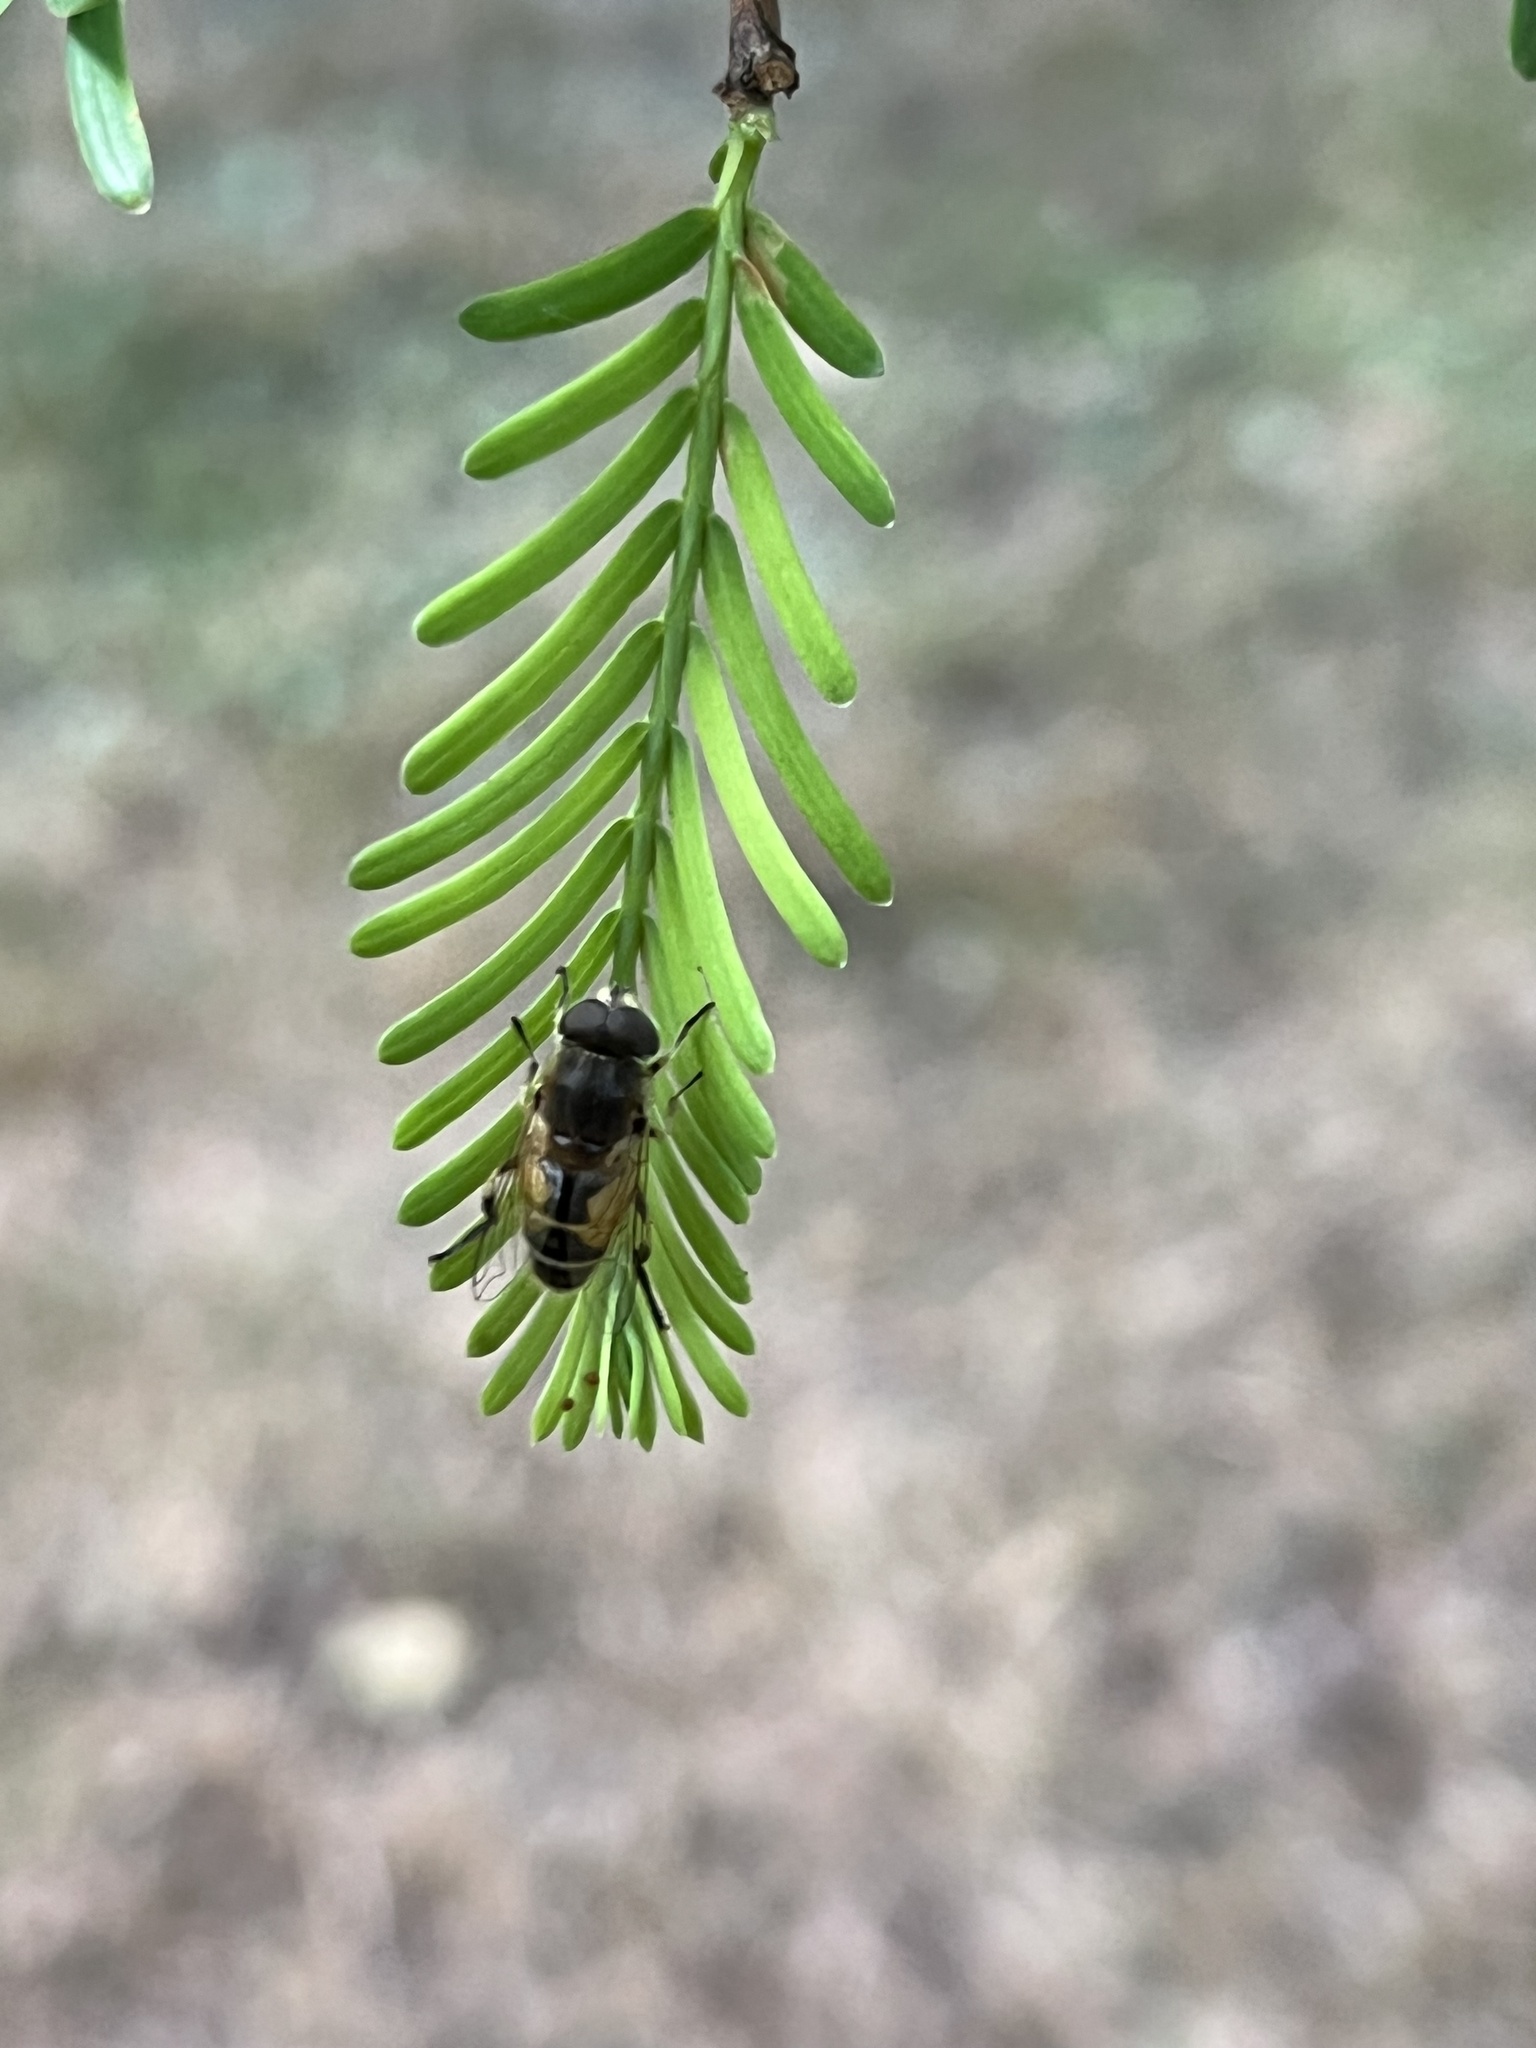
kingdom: Animalia
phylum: Arthropoda
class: Insecta
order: Diptera
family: Syrphidae
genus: Eristalis
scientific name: Eristalis arbustorum
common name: Hover fly
